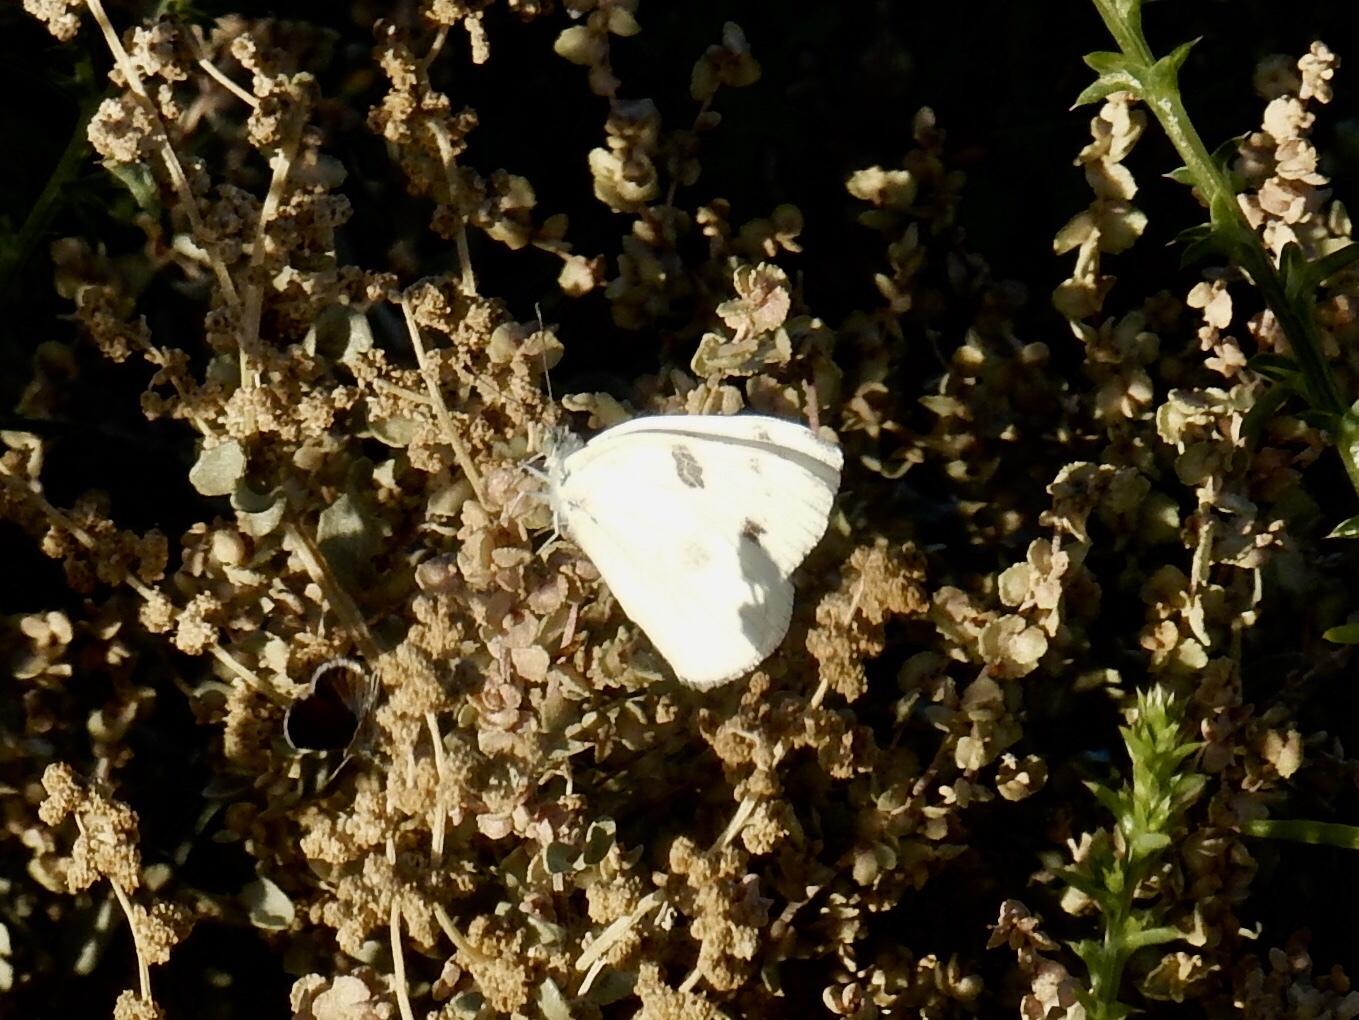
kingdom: Animalia
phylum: Arthropoda
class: Insecta
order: Lepidoptera
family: Pieridae
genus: Pontia
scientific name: Pontia protodice
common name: Checkered white
